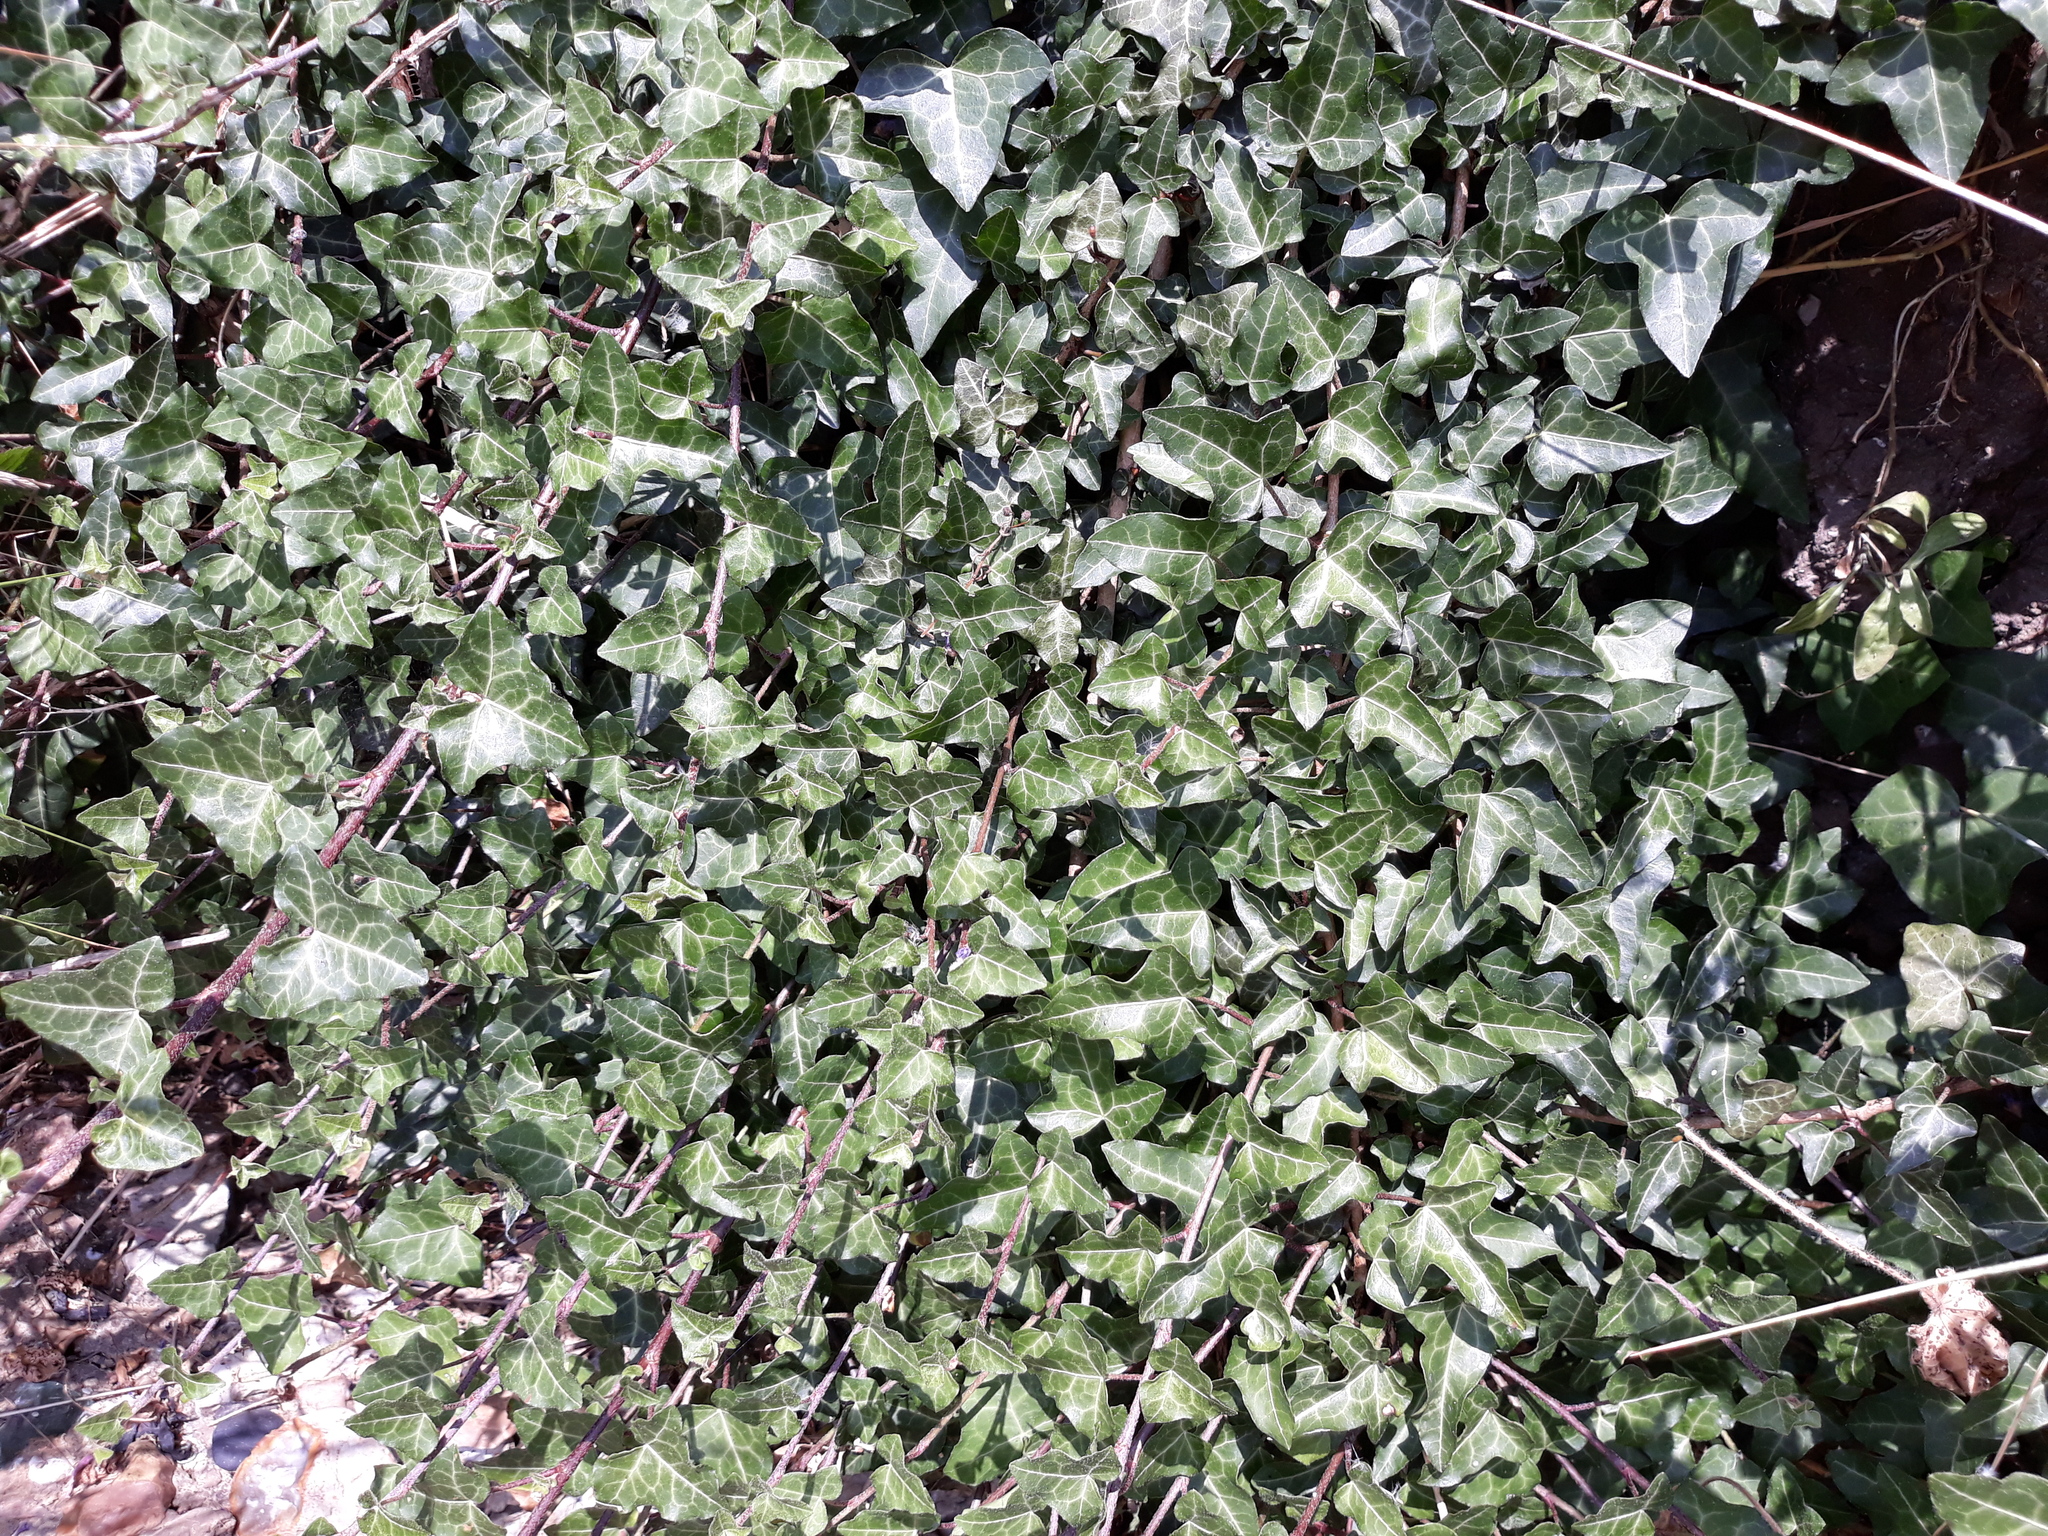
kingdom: Plantae
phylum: Tracheophyta
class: Magnoliopsida
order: Apiales
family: Araliaceae
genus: Hedera
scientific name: Hedera helix
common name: Ivy
